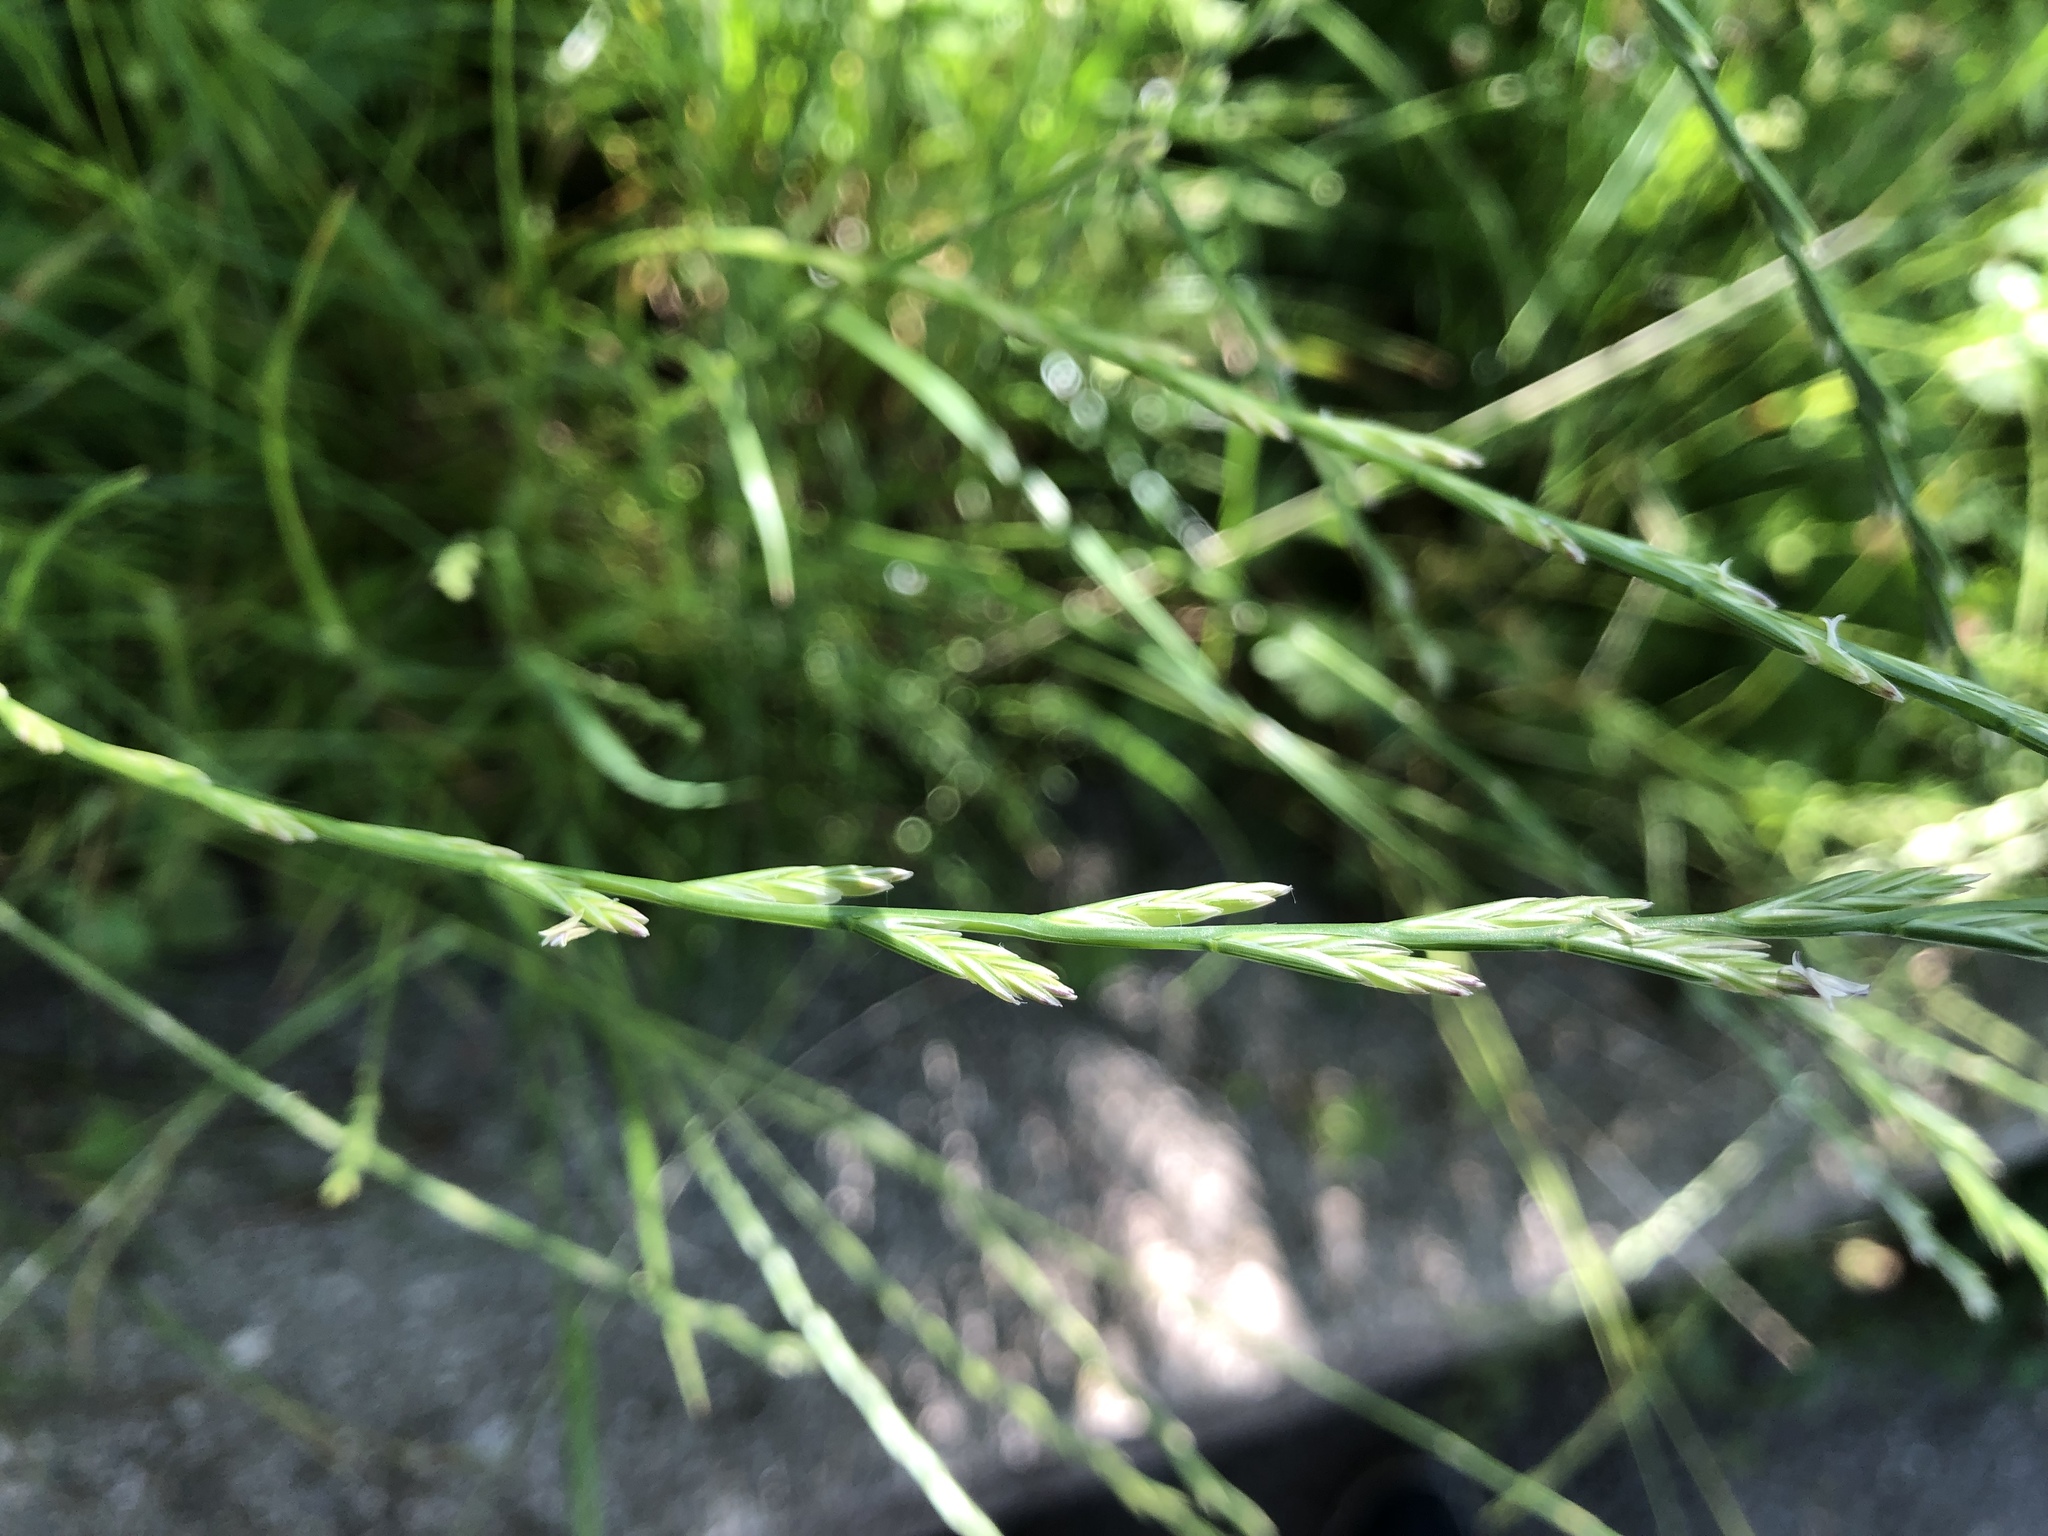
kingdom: Plantae
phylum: Tracheophyta
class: Liliopsida
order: Poales
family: Poaceae
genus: Lolium
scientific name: Lolium perenne
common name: Perennial ryegrass
